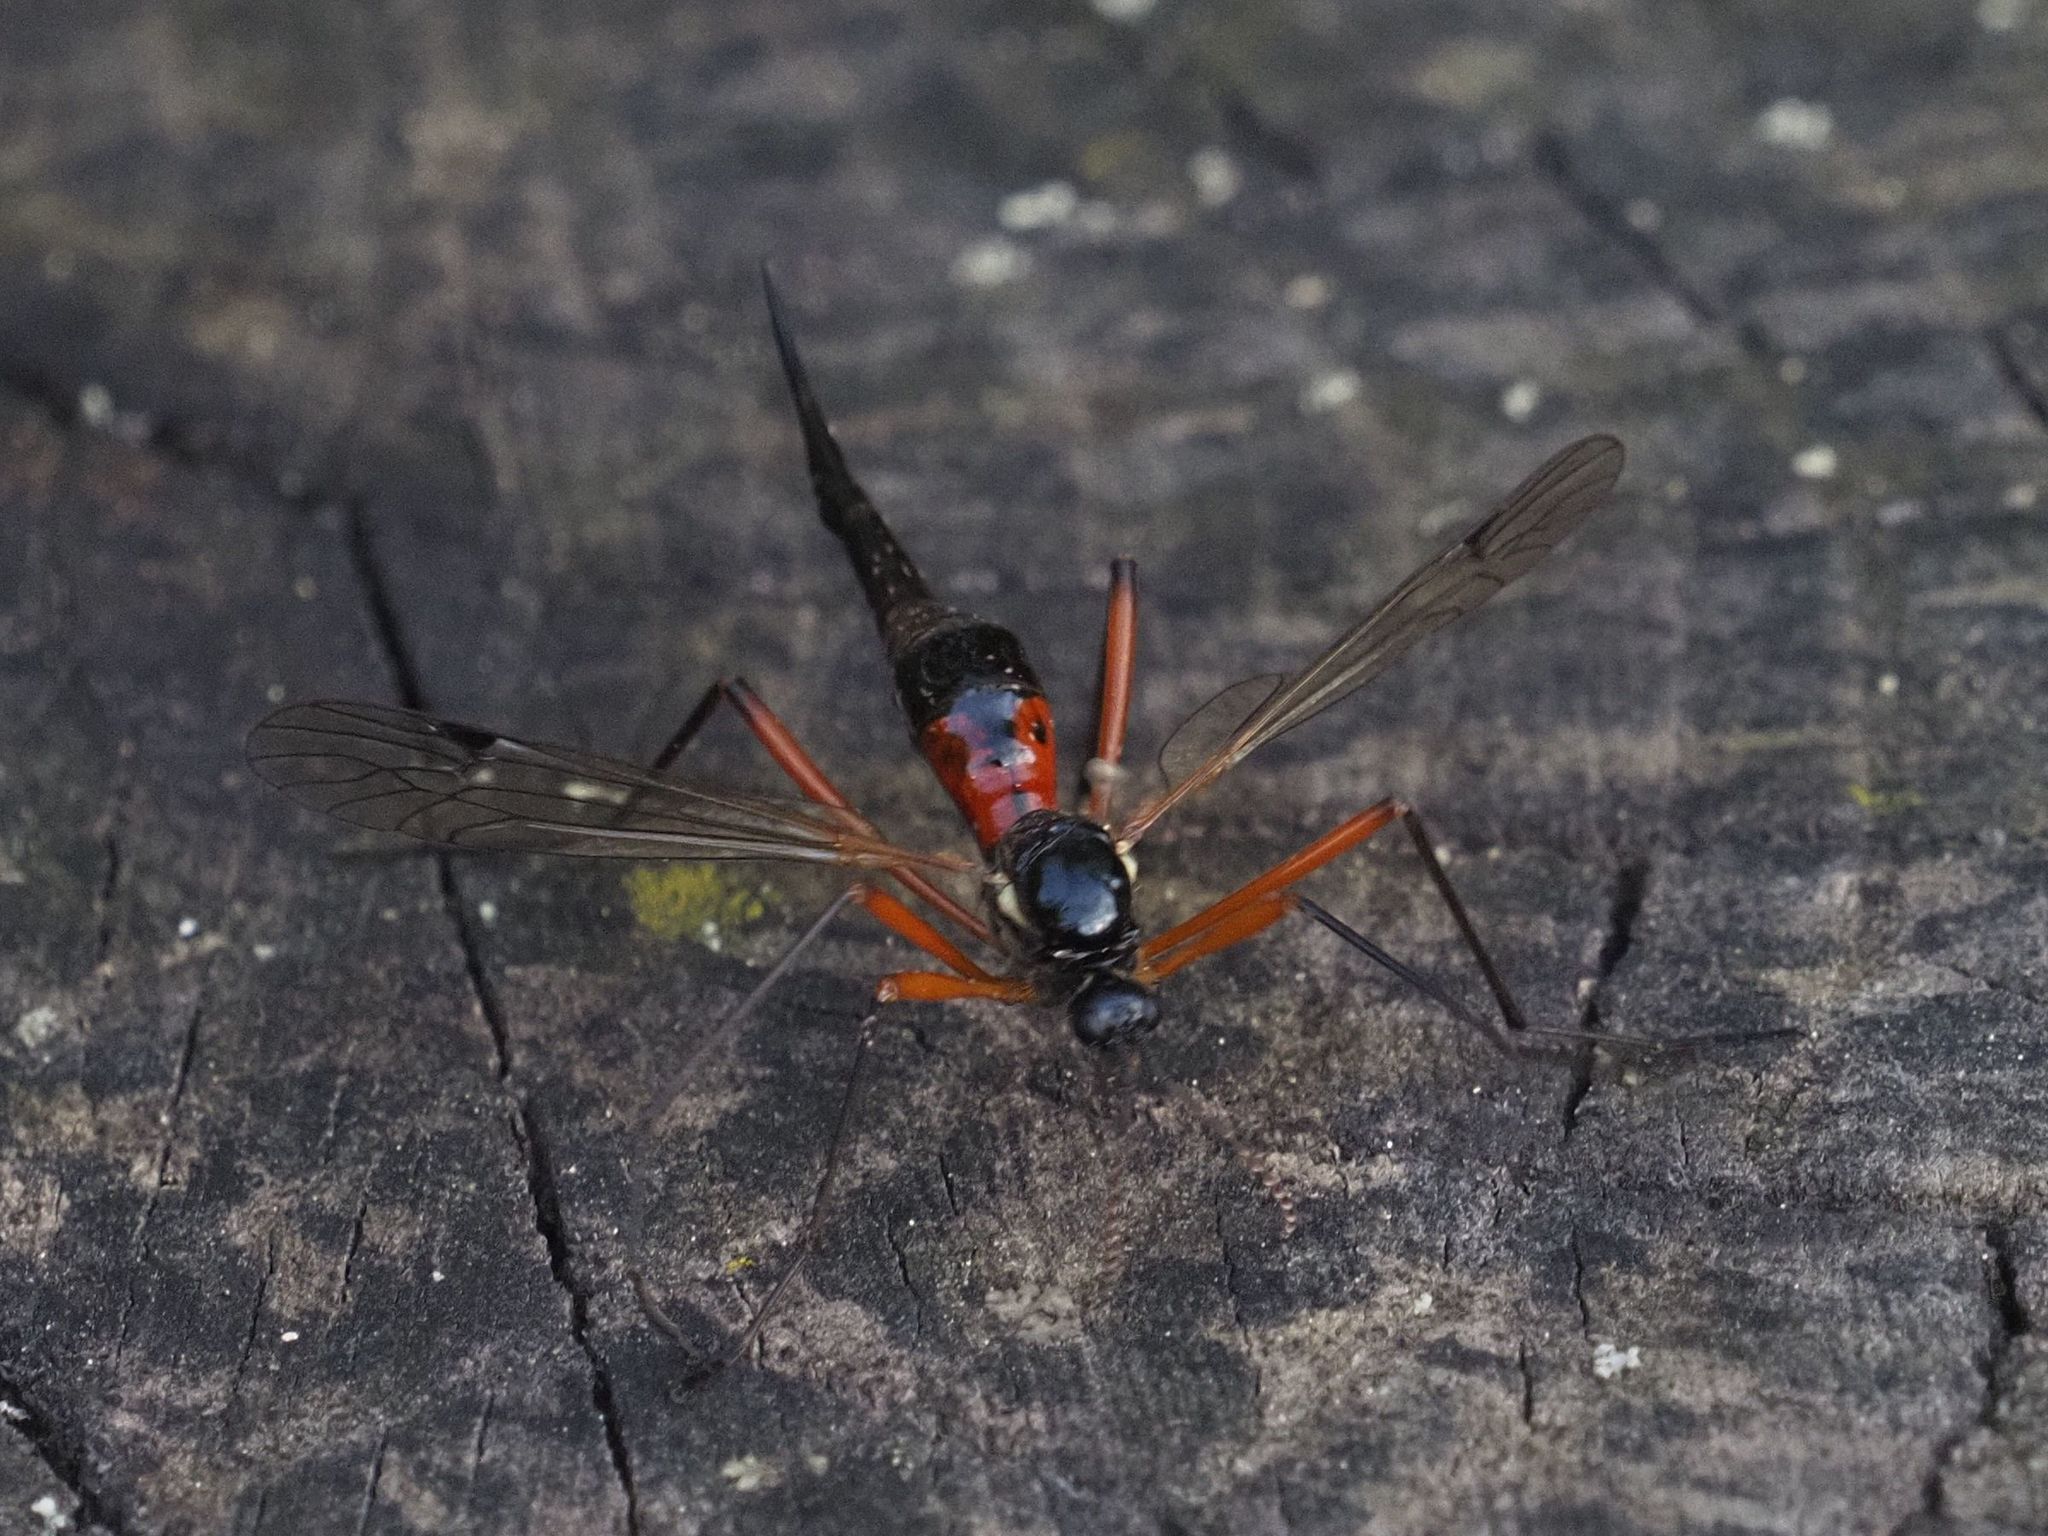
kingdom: Animalia
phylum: Arthropoda
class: Insecta
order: Diptera
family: Tipulidae
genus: Tanyptera
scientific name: Tanyptera atrata
